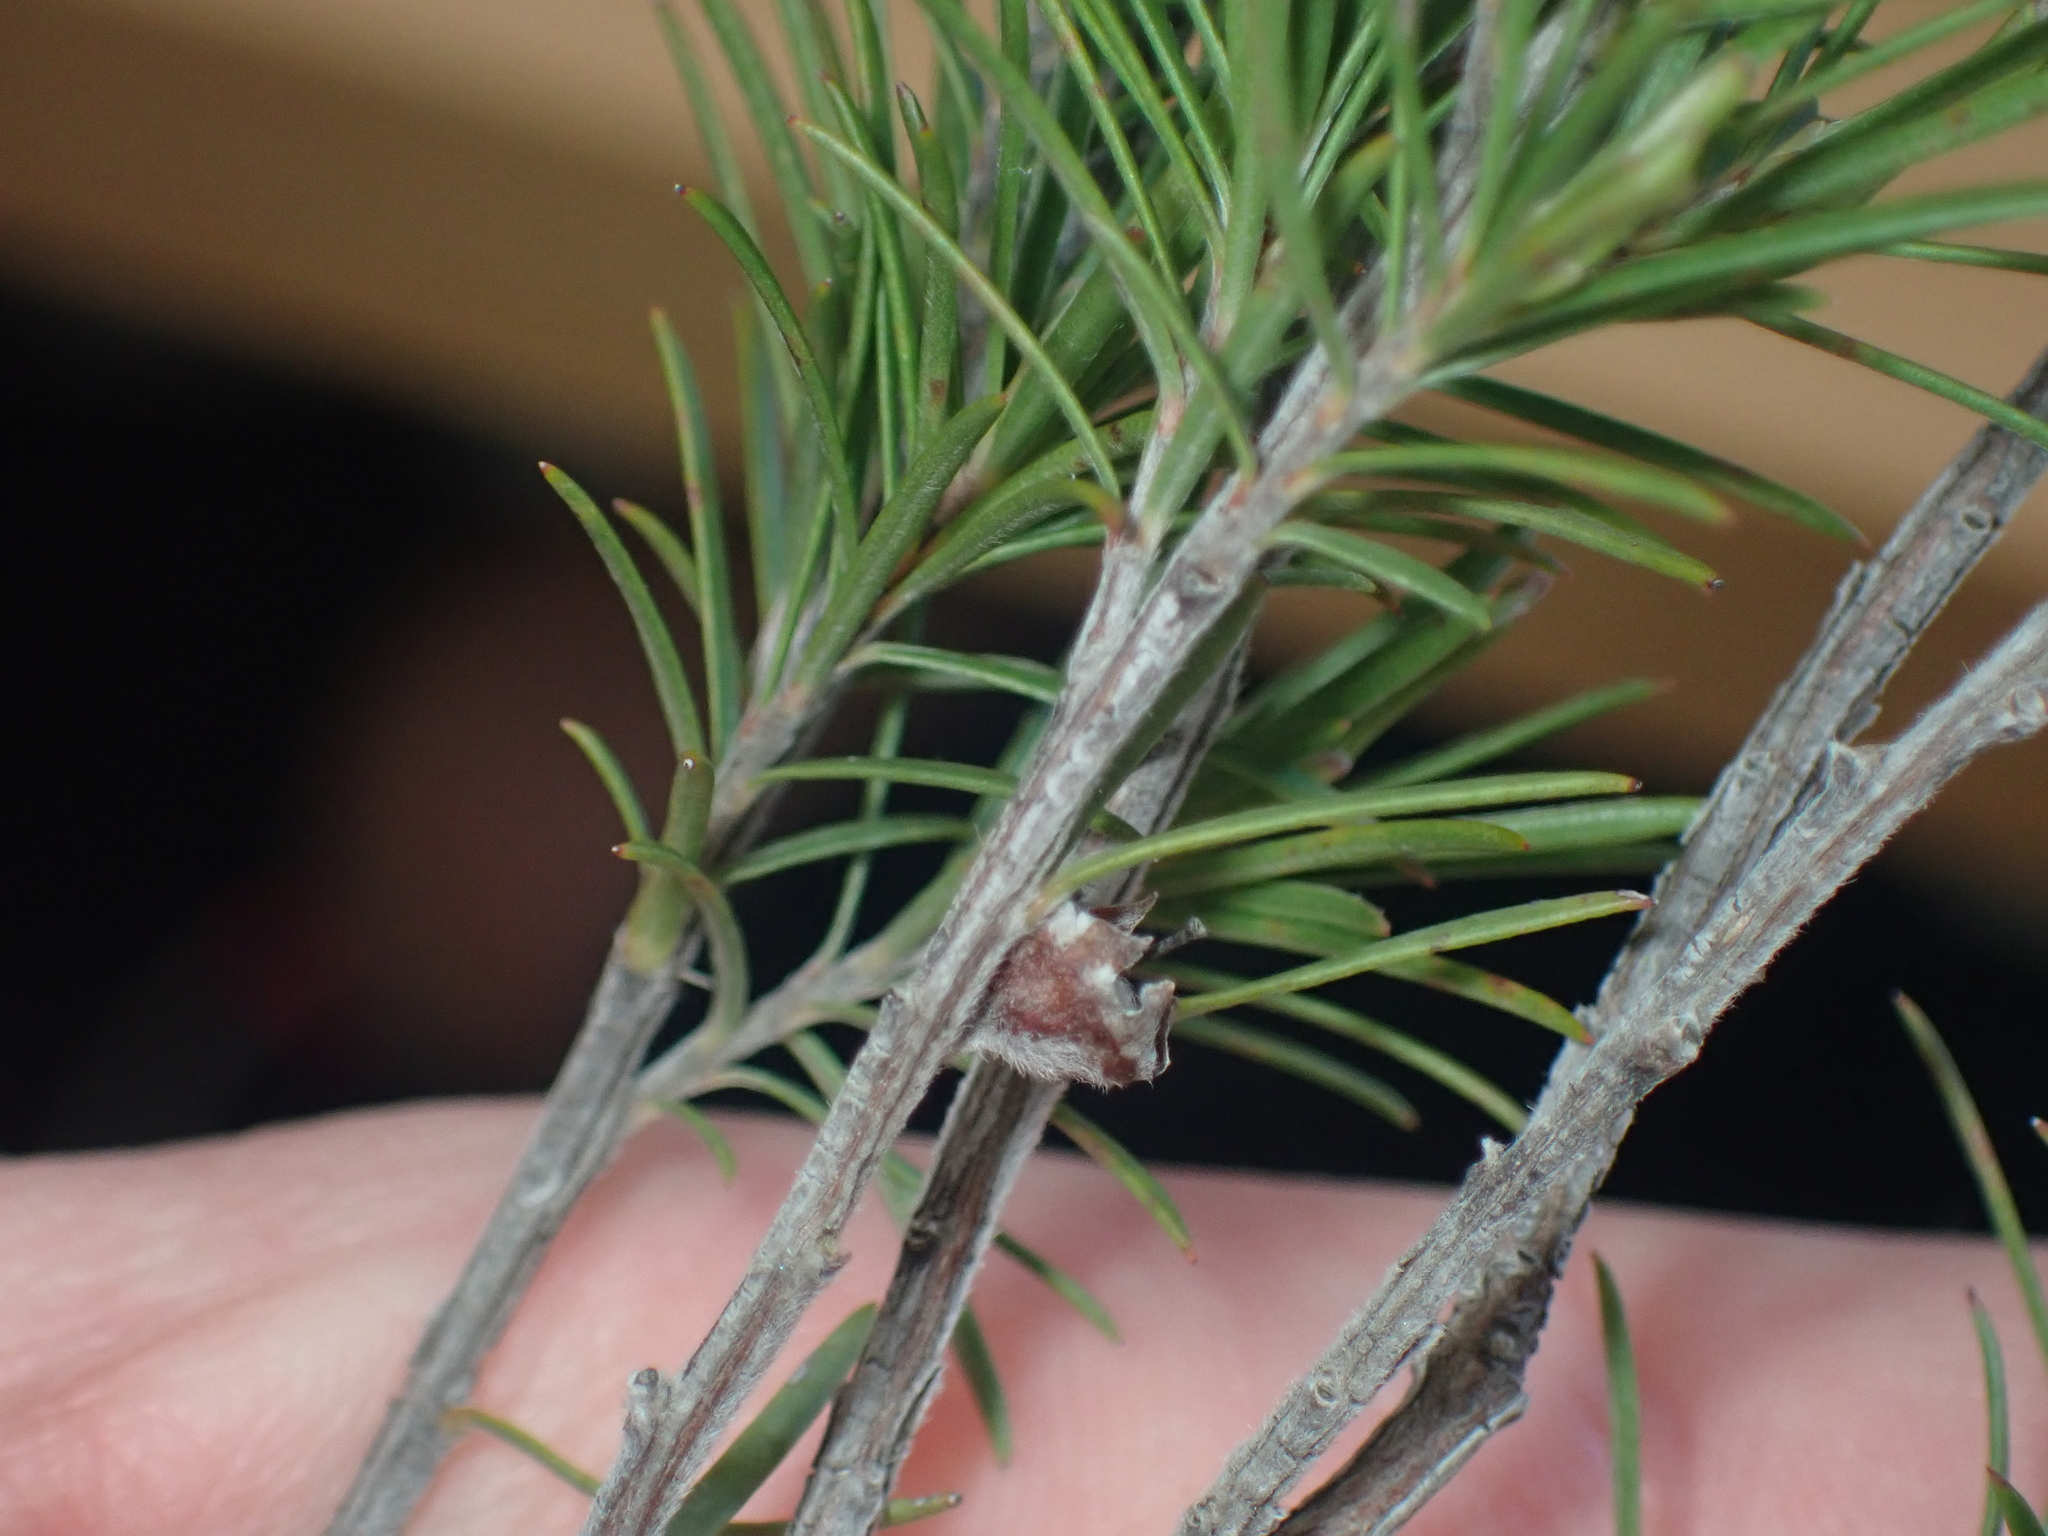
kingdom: Plantae
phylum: Tracheophyta
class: Magnoliopsida
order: Myrtales
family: Myrtaceae
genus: Kunzea
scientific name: Kunzea linearis
